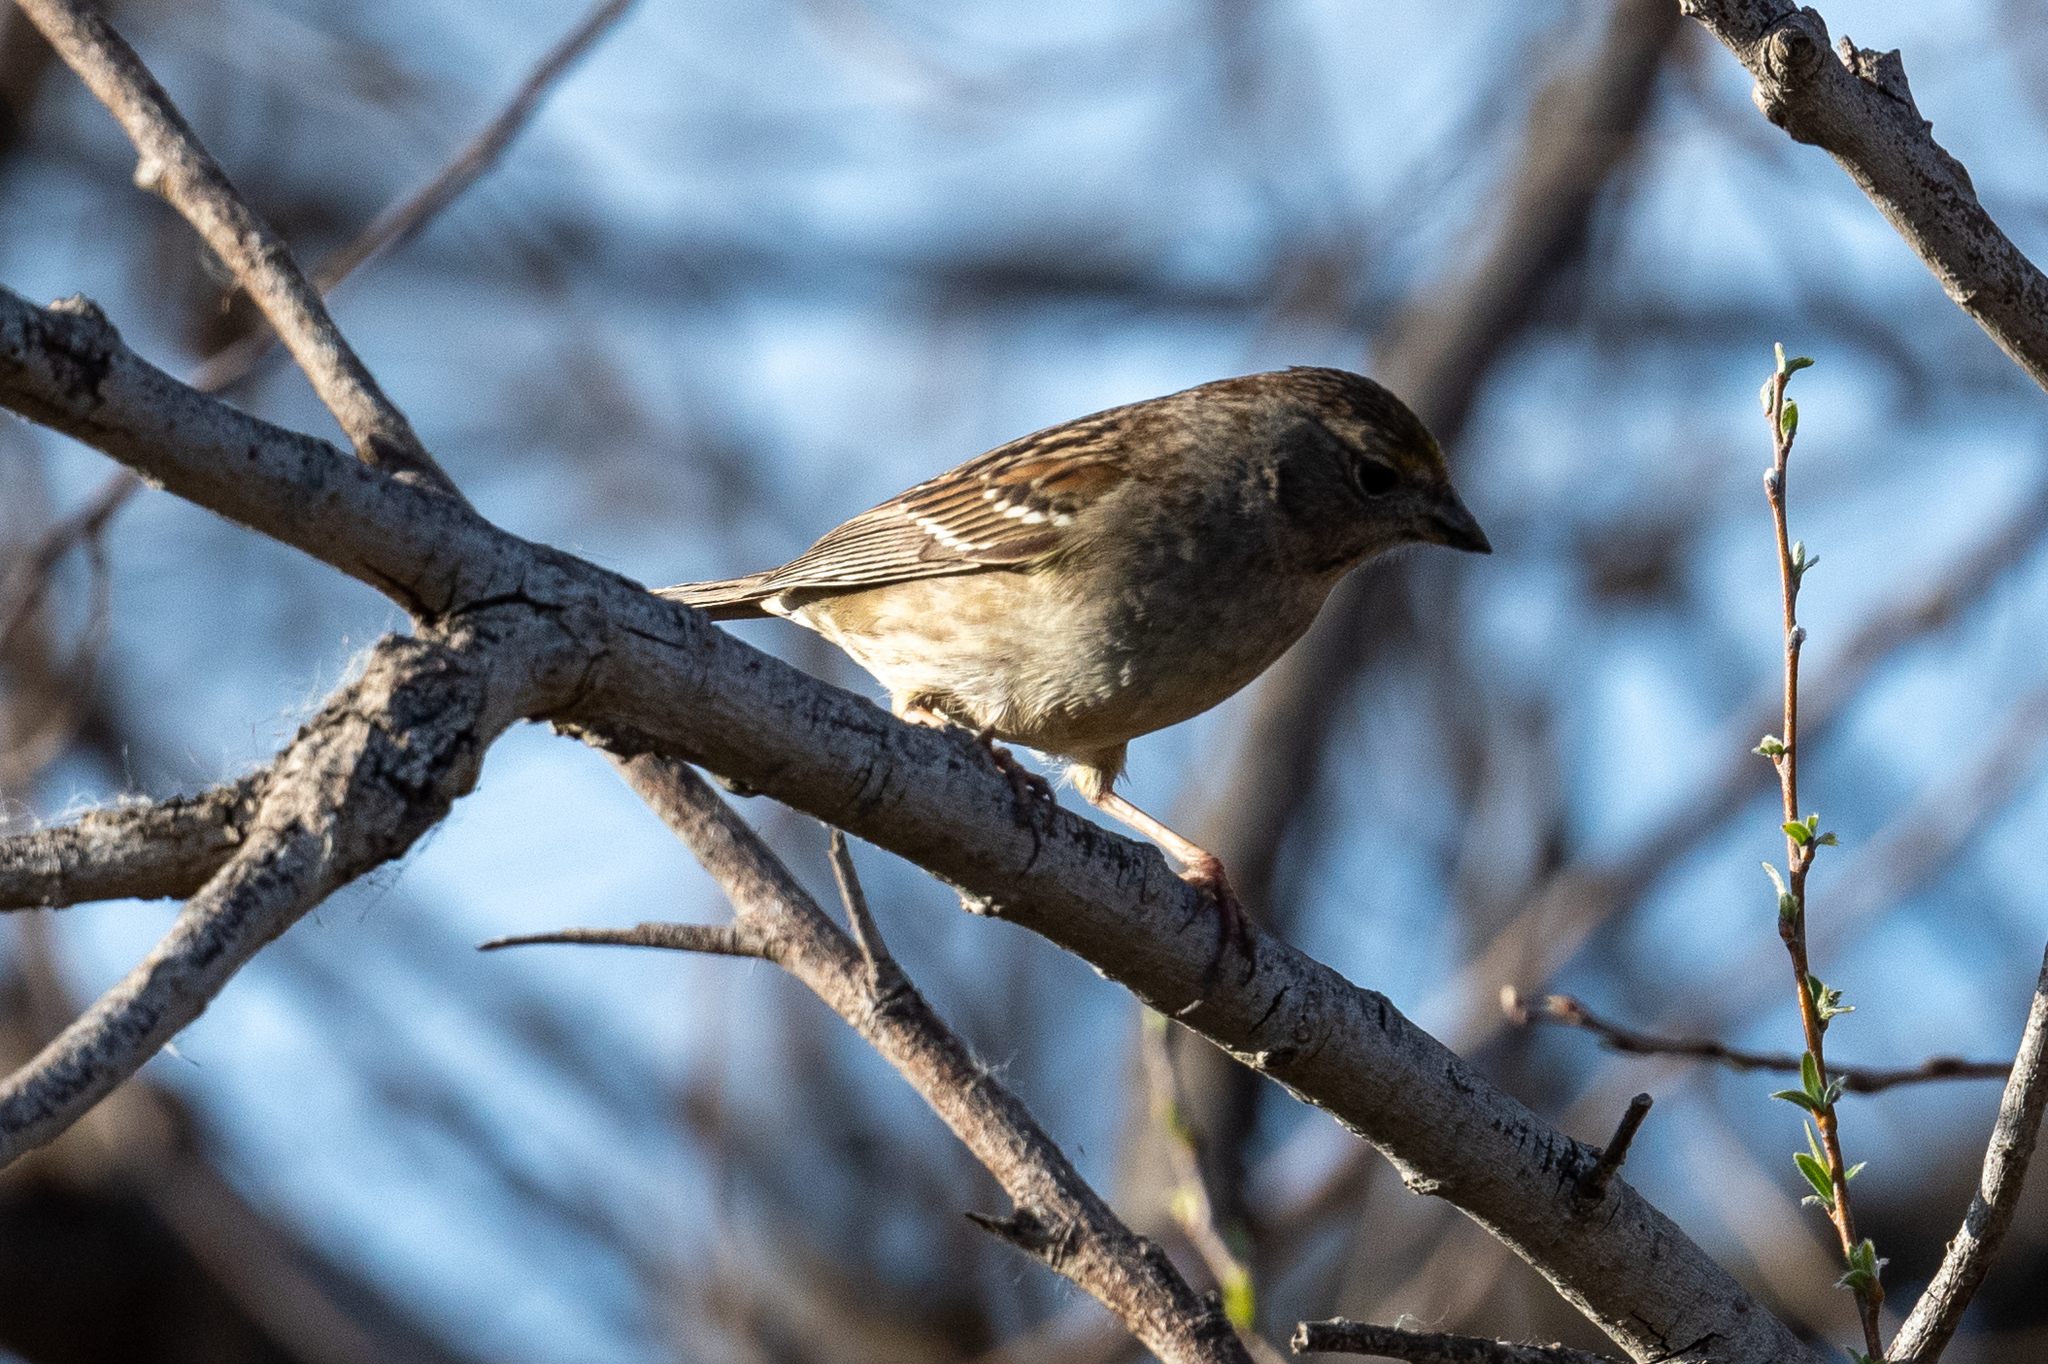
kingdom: Animalia
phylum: Chordata
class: Aves
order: Passeriformes
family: Passerellidae
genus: Zonotrichia
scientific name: Zonotrichia atricapilla
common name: Golden-crowned sparrow
